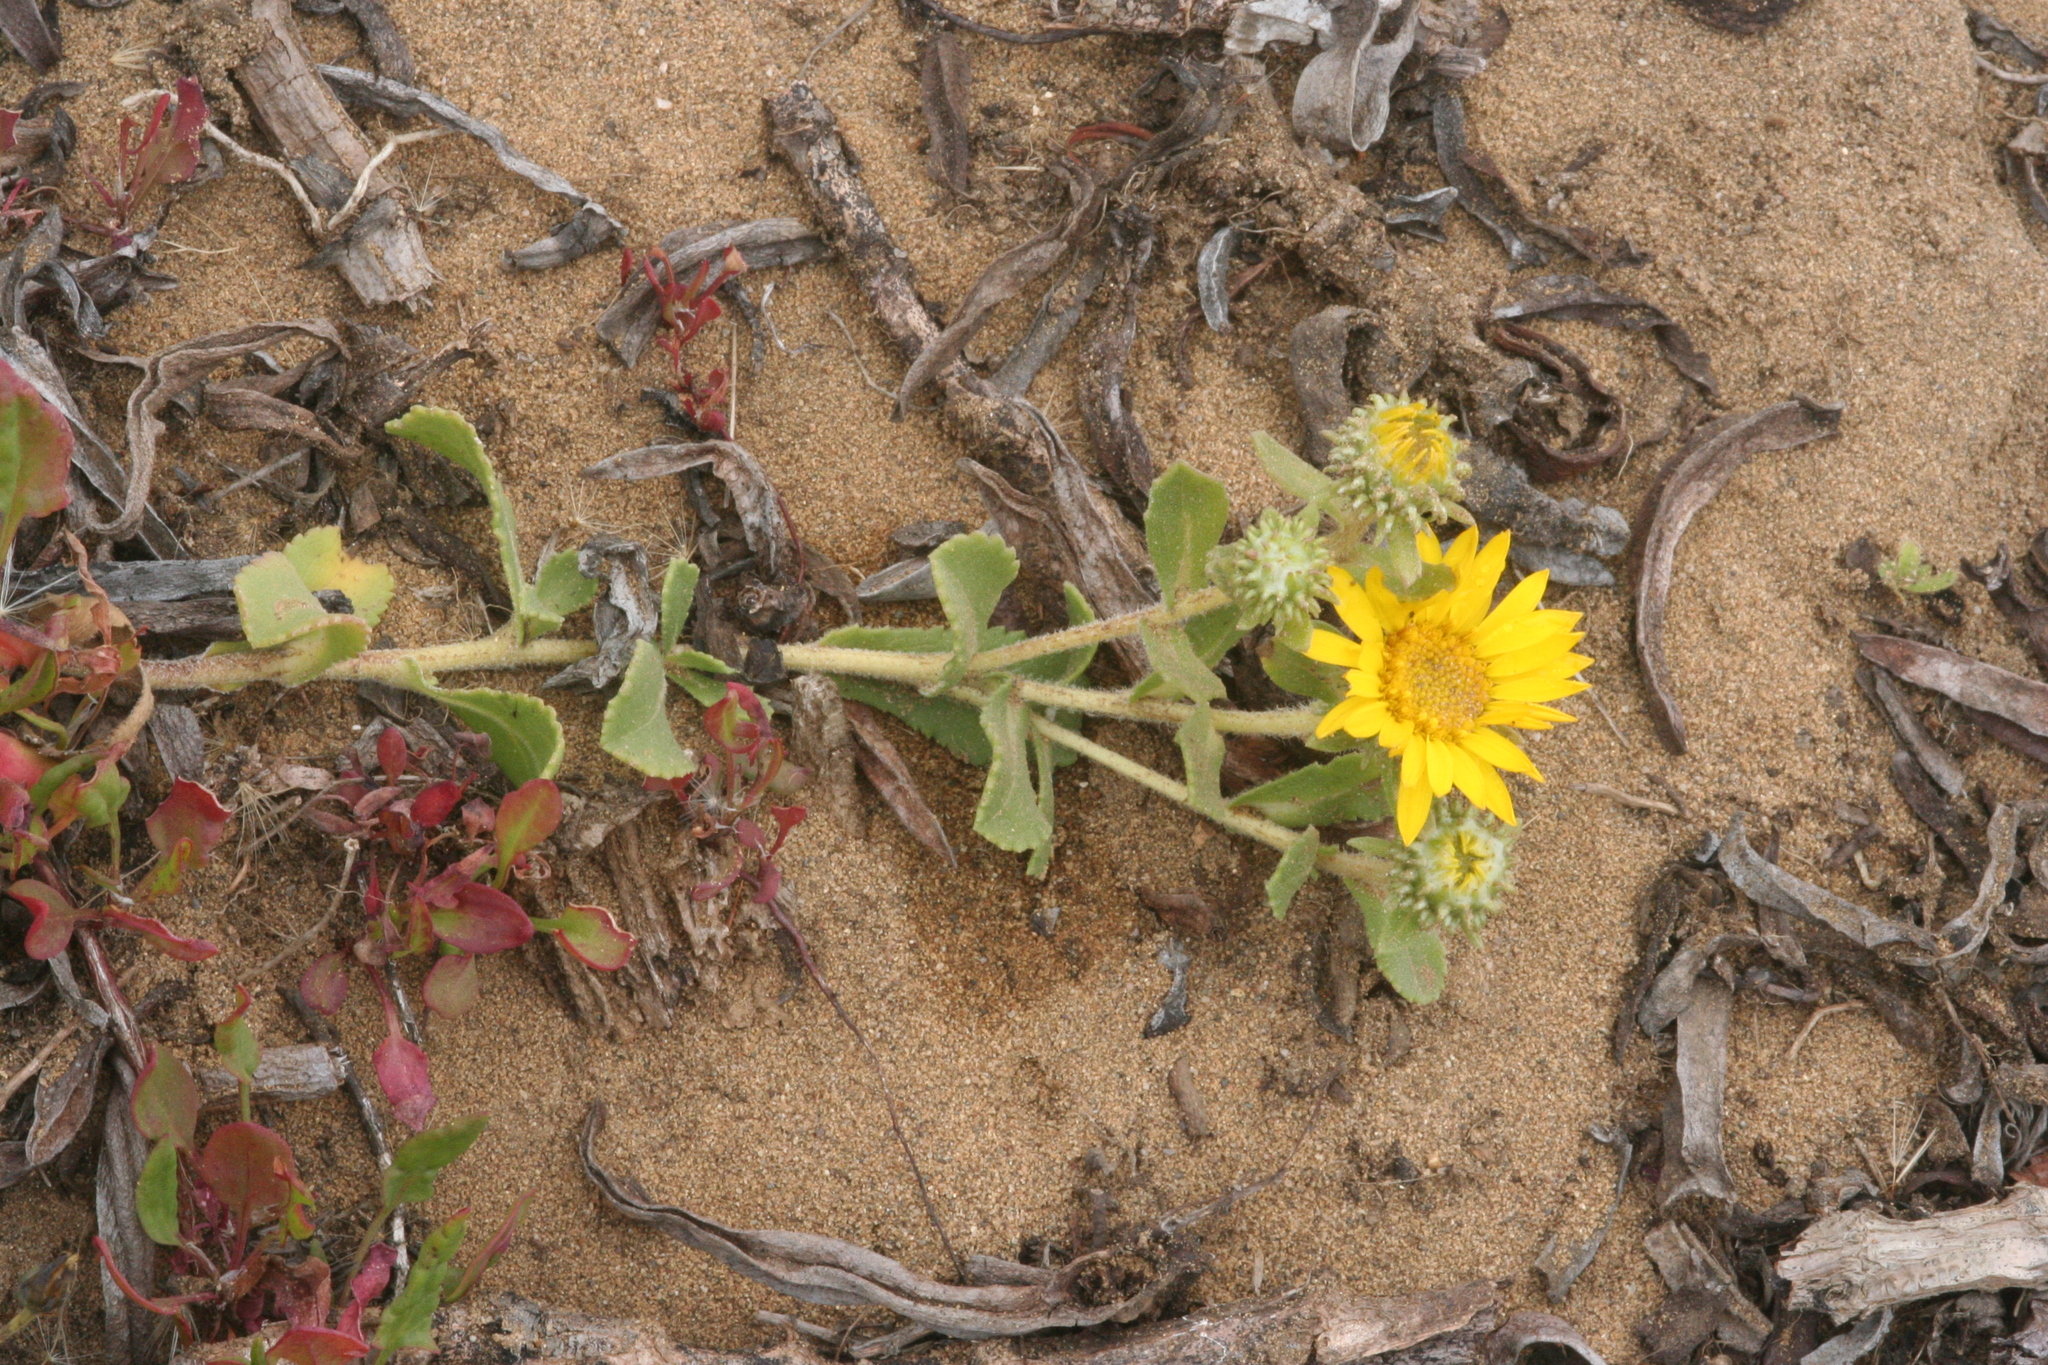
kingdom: Plantae
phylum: Tracheophyta
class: Magnoliopsida
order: Asterales
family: Asteraceae
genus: Grindelia
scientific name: Grindelia hirsutula
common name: Hairy gumweed
